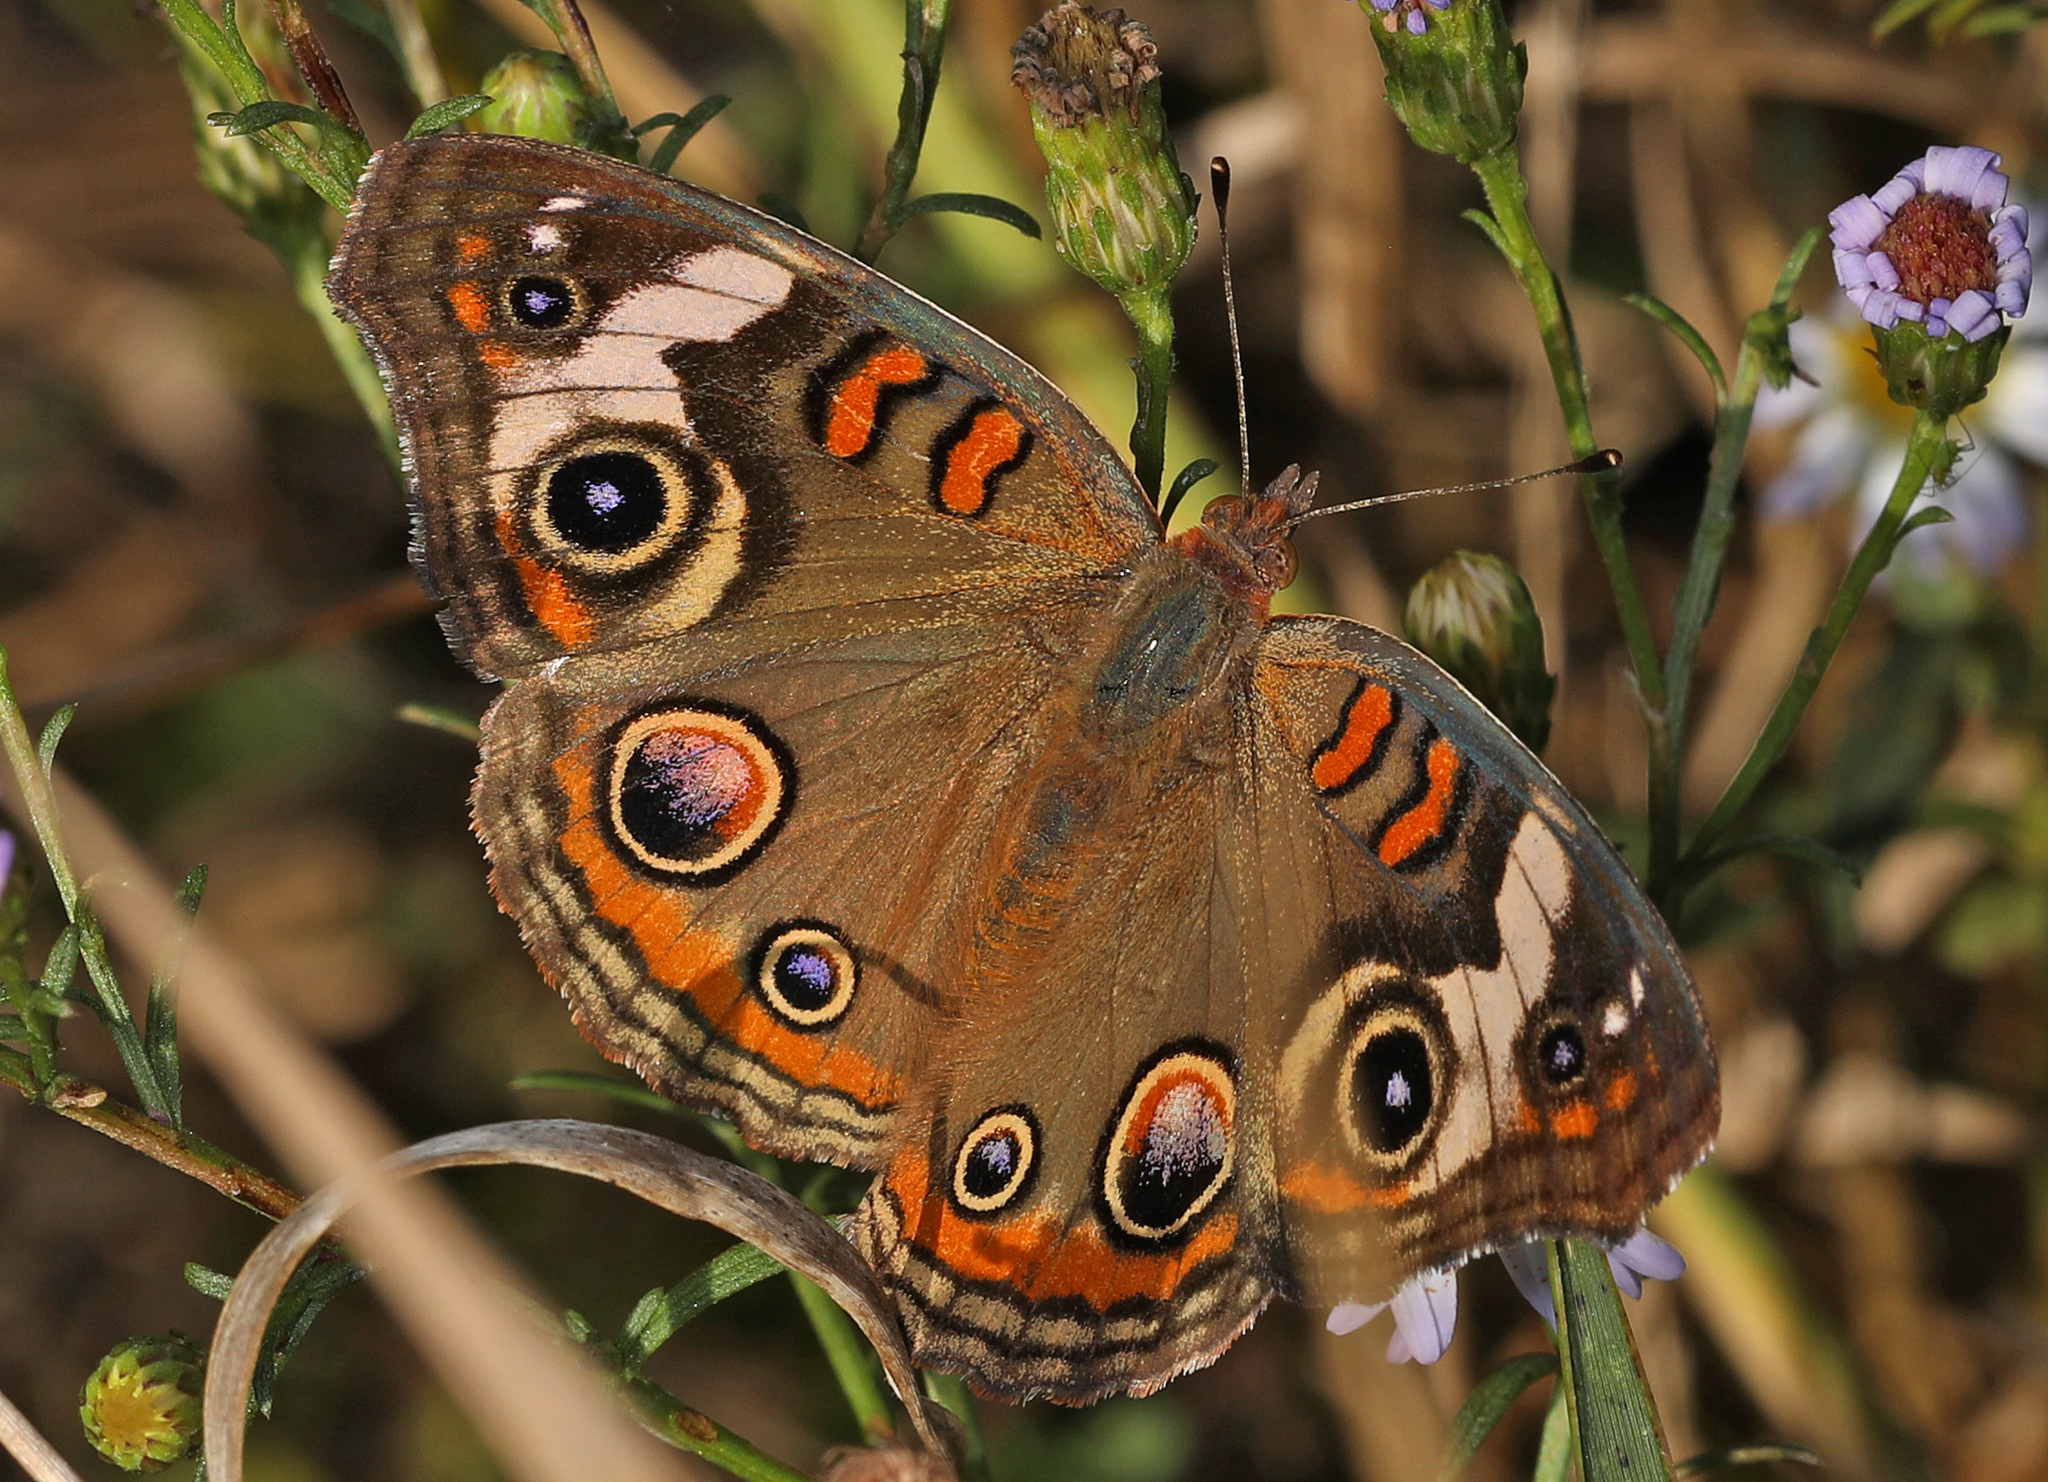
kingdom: Animalia
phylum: Arthropoda
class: Insecta
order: Lepidoptera
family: Nymphalidae
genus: Junonia
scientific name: Junonia coenia
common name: Common buckeye
